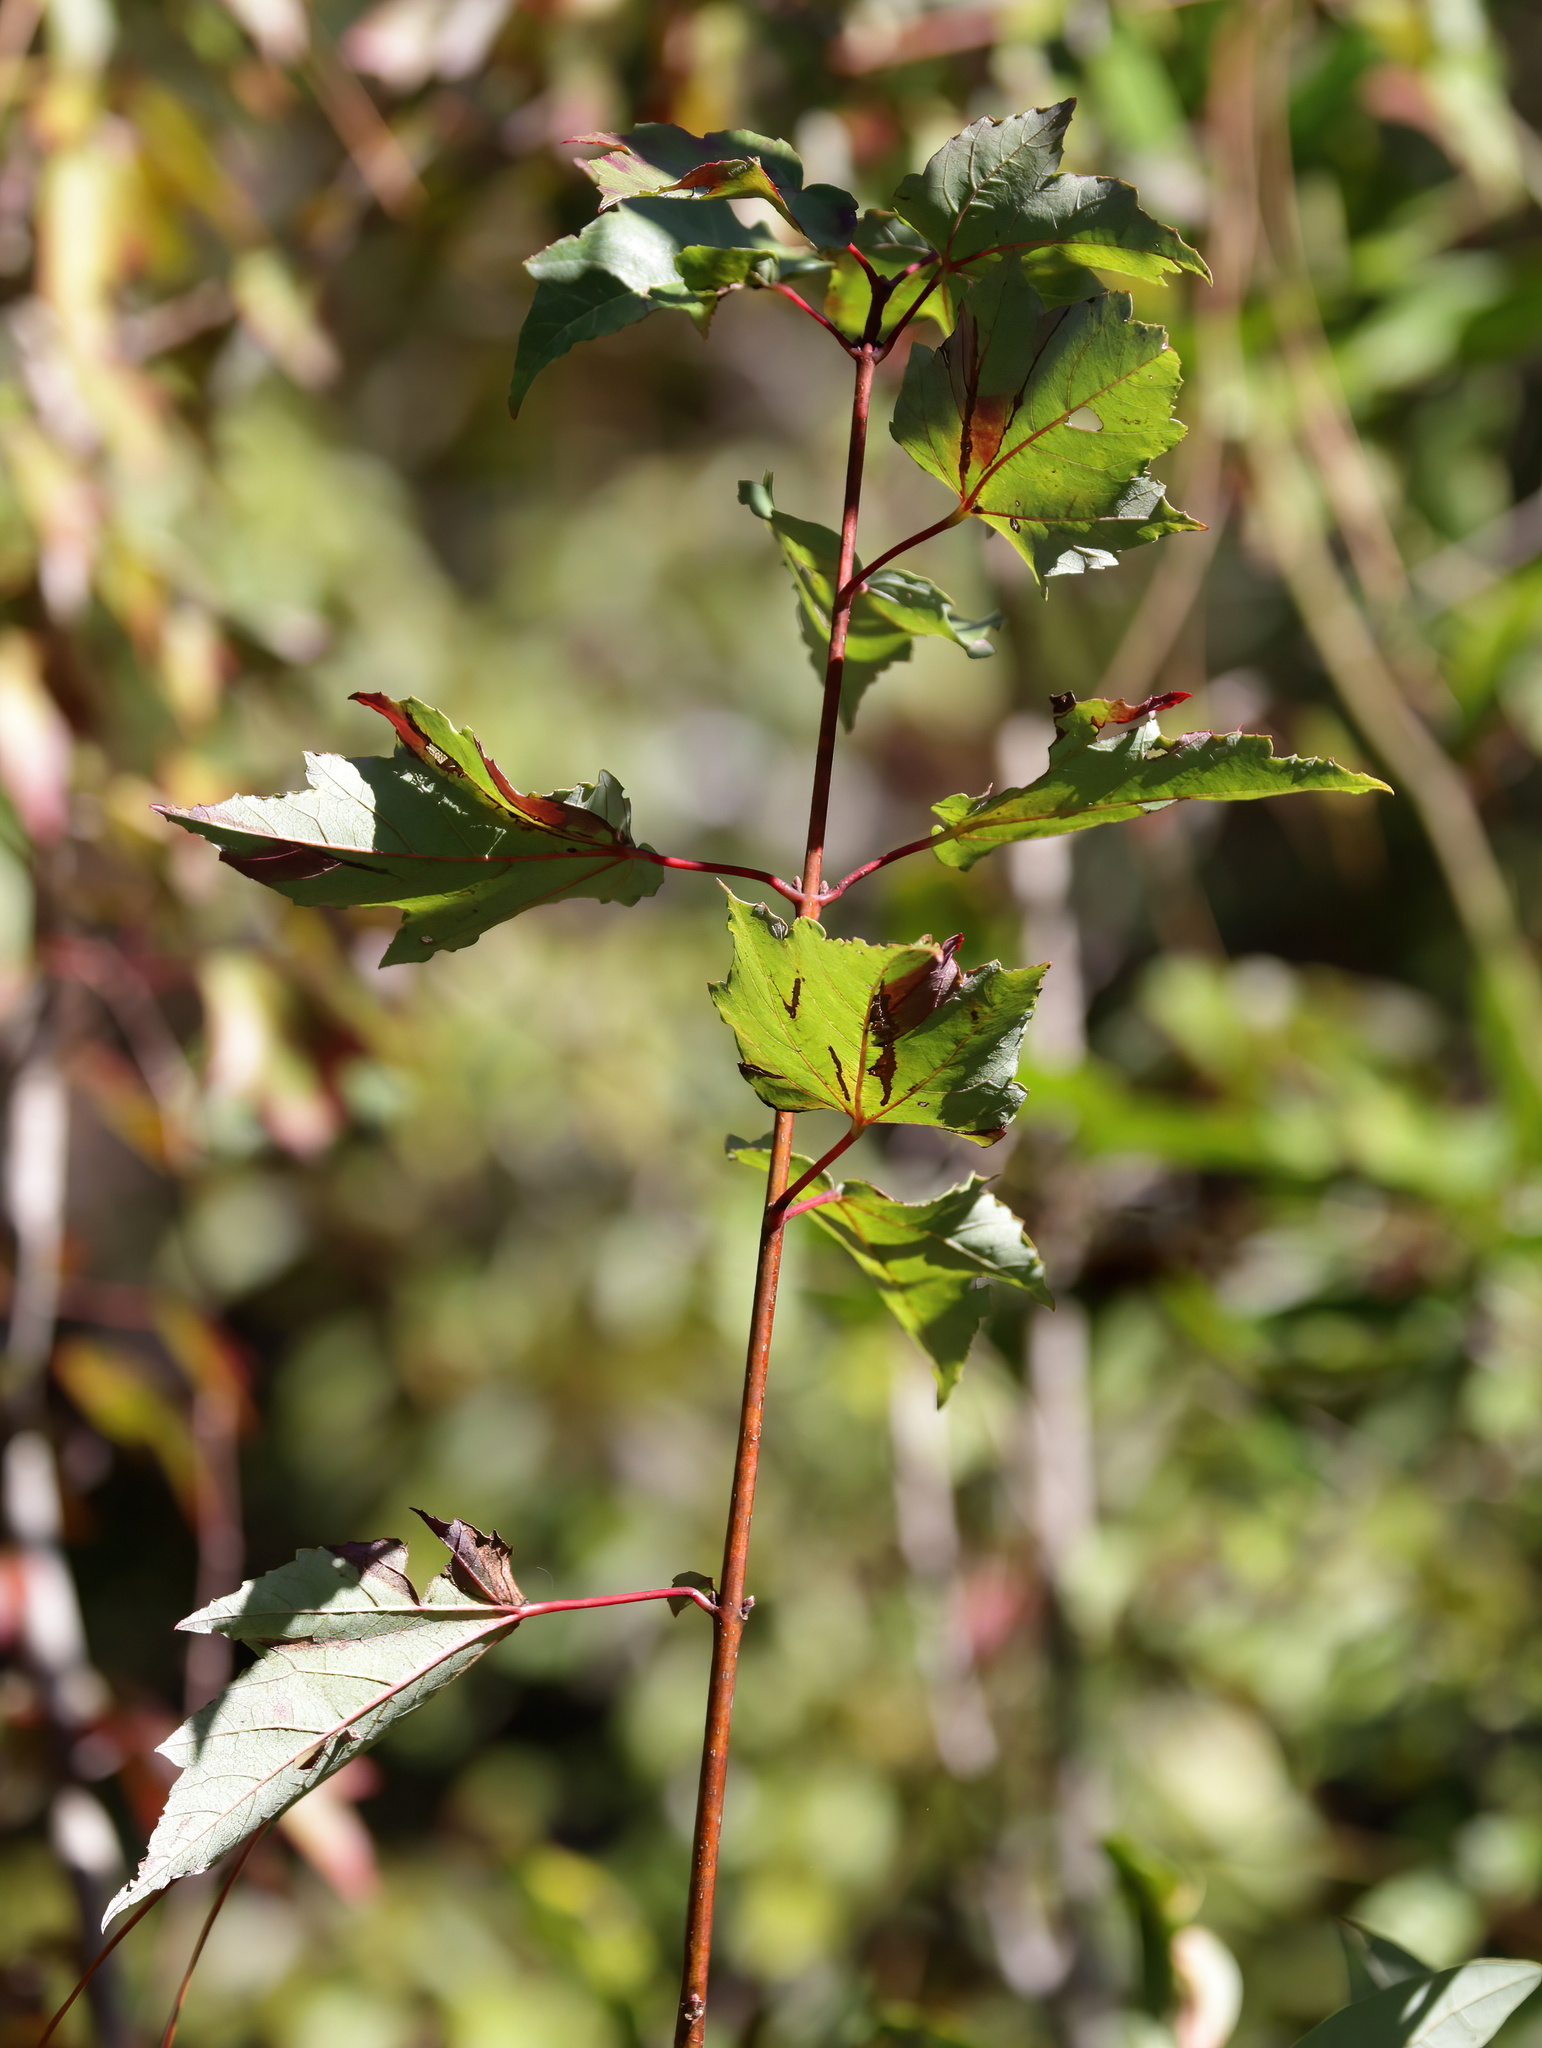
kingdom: Plantae
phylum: Tracheophyta
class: Magnoliopsida
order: Sapindales
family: Sapindaceae
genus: Acer
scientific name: Acer rubrum
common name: Red maple
